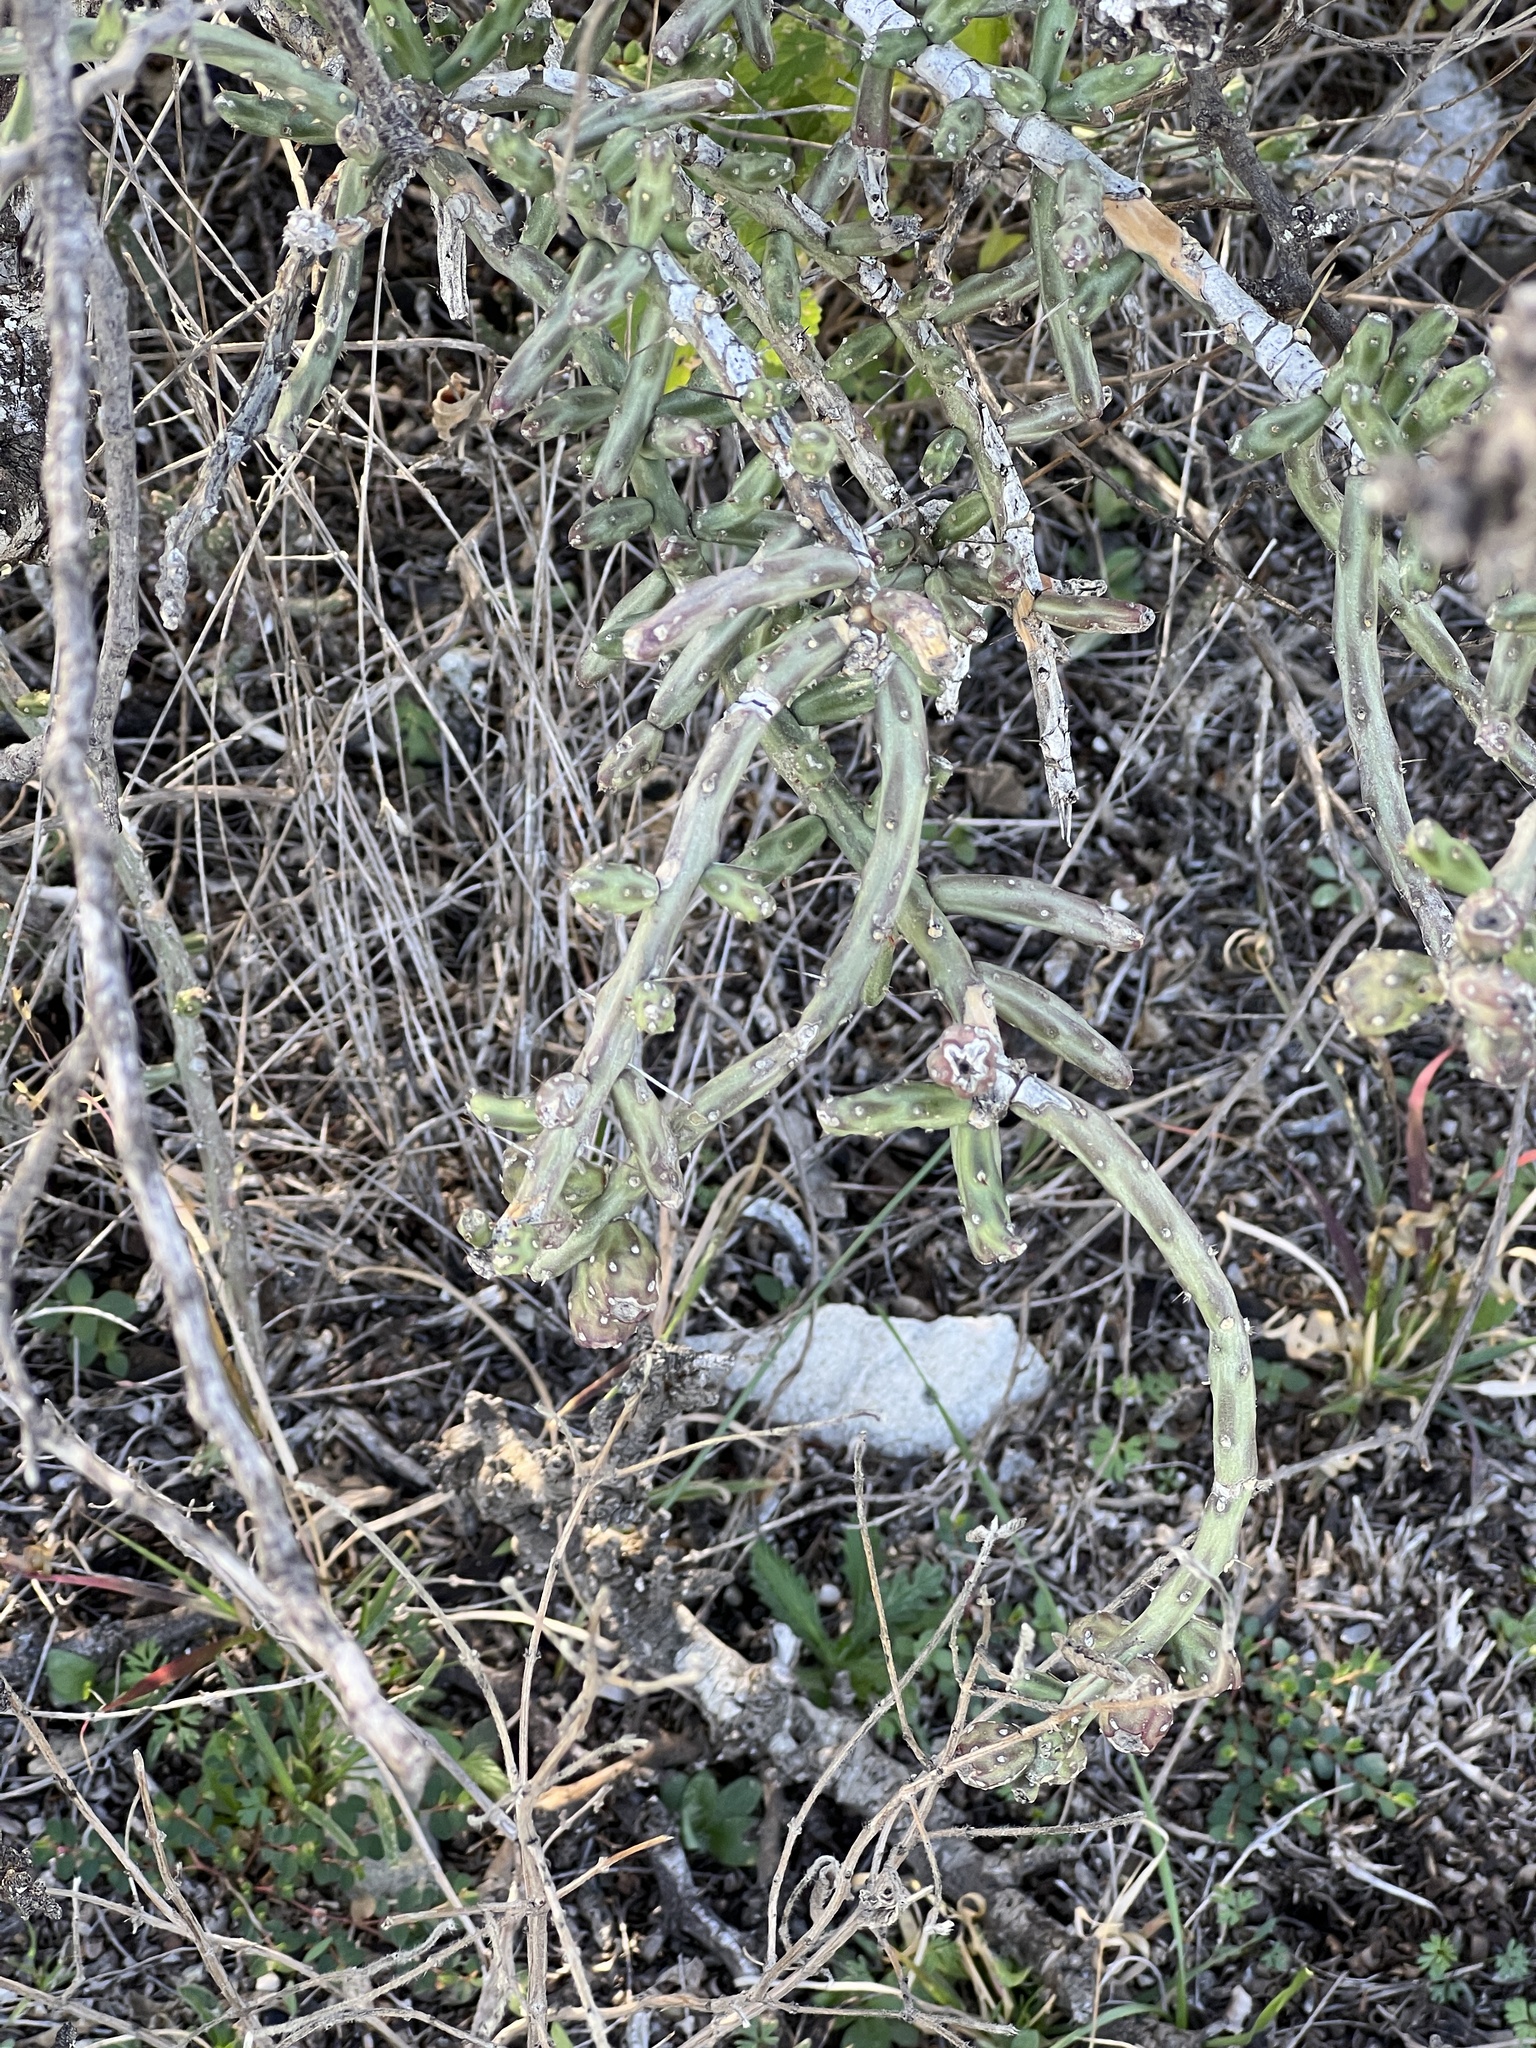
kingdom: Plantae
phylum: Tracheophyta
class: Magnoliopsida
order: Caryophyllales
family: Cactaceae
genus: Cylindropuntia
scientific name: Cylindropuntia leptocaulis
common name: Christmas cactus
